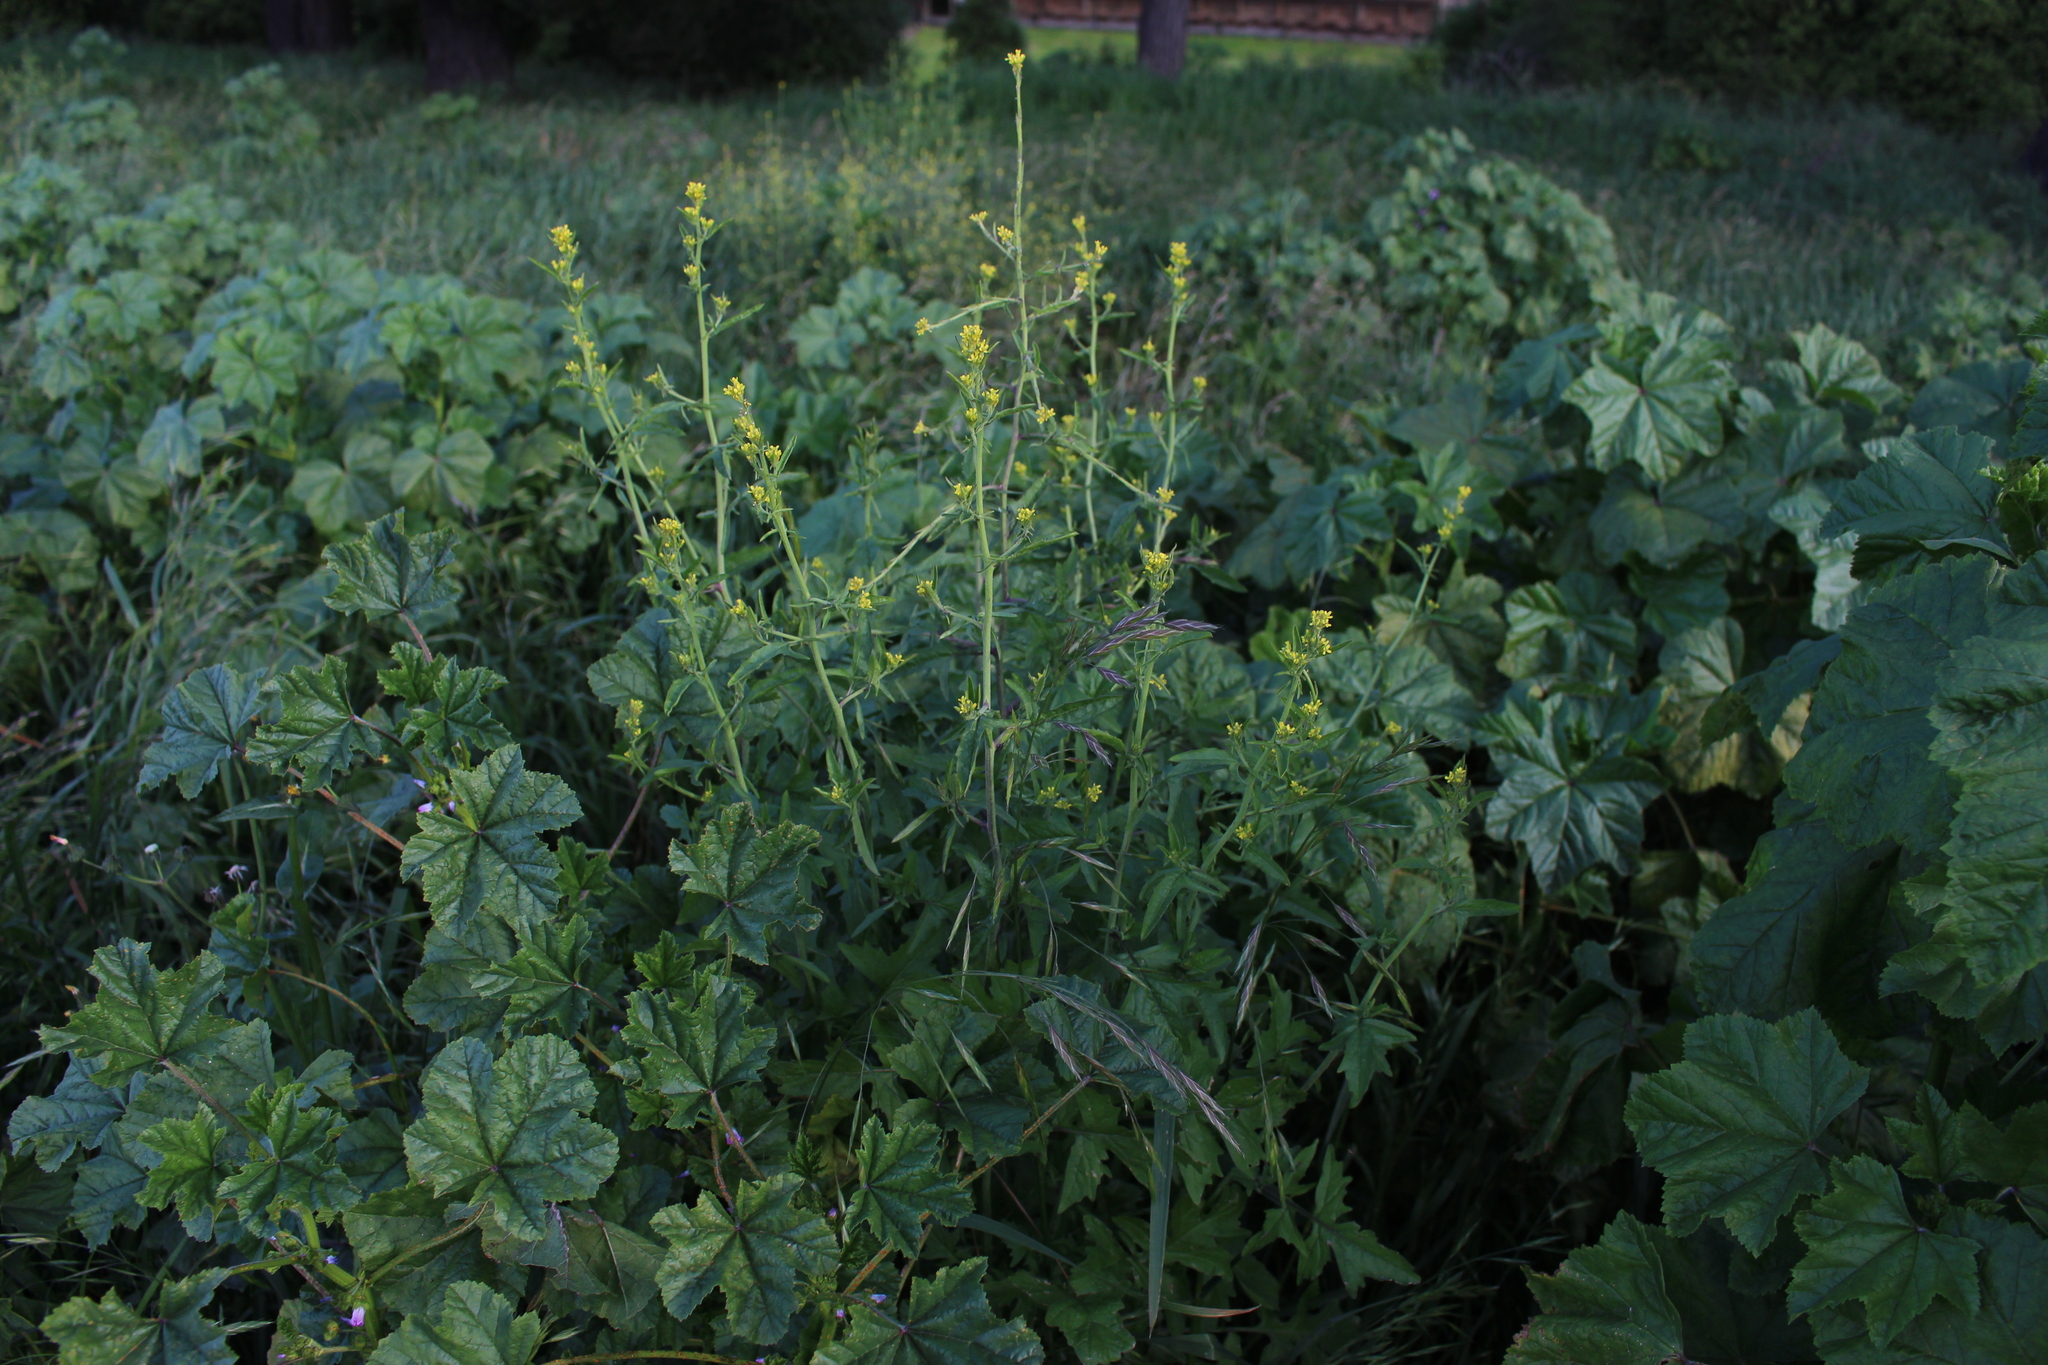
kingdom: Plantae
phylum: Tracheophyta
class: Magnoliopsida
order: Brassicales
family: Brassicaceae
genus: Sisymbrium
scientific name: Sisymbrium officinale
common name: Hedge mustard
